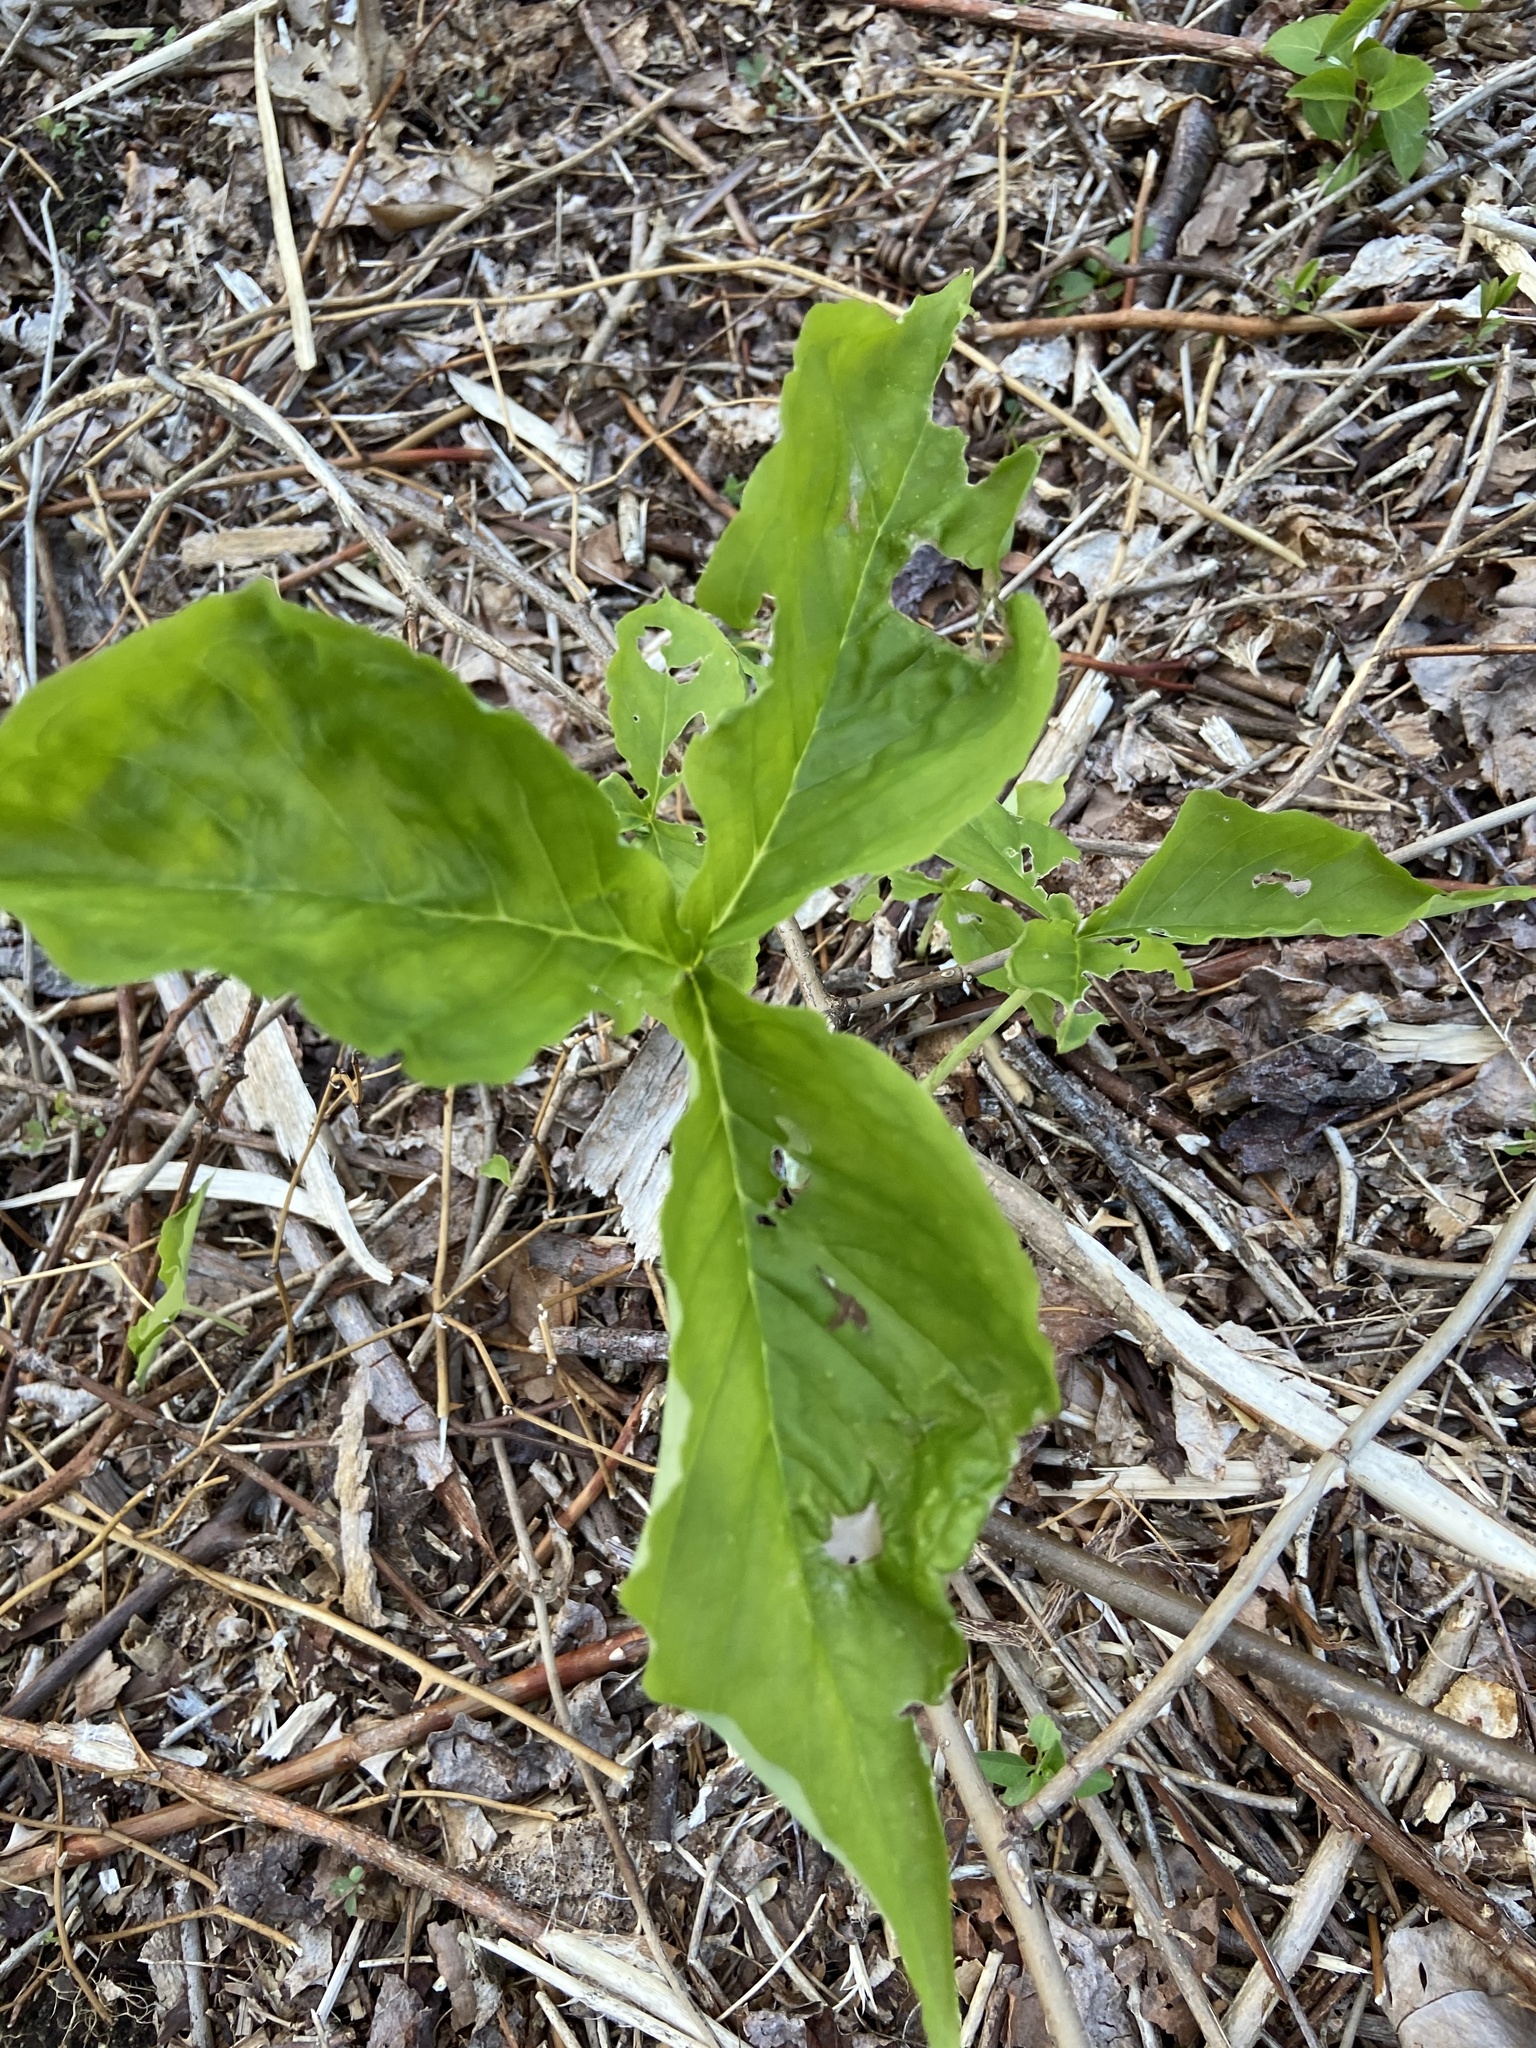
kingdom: Plantae
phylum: Tracheophyta
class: Liliopsida
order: Alismatales
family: Araceae
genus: Arisaema
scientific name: Arisaema triphyllum
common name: Jack-in-the-pulpit
